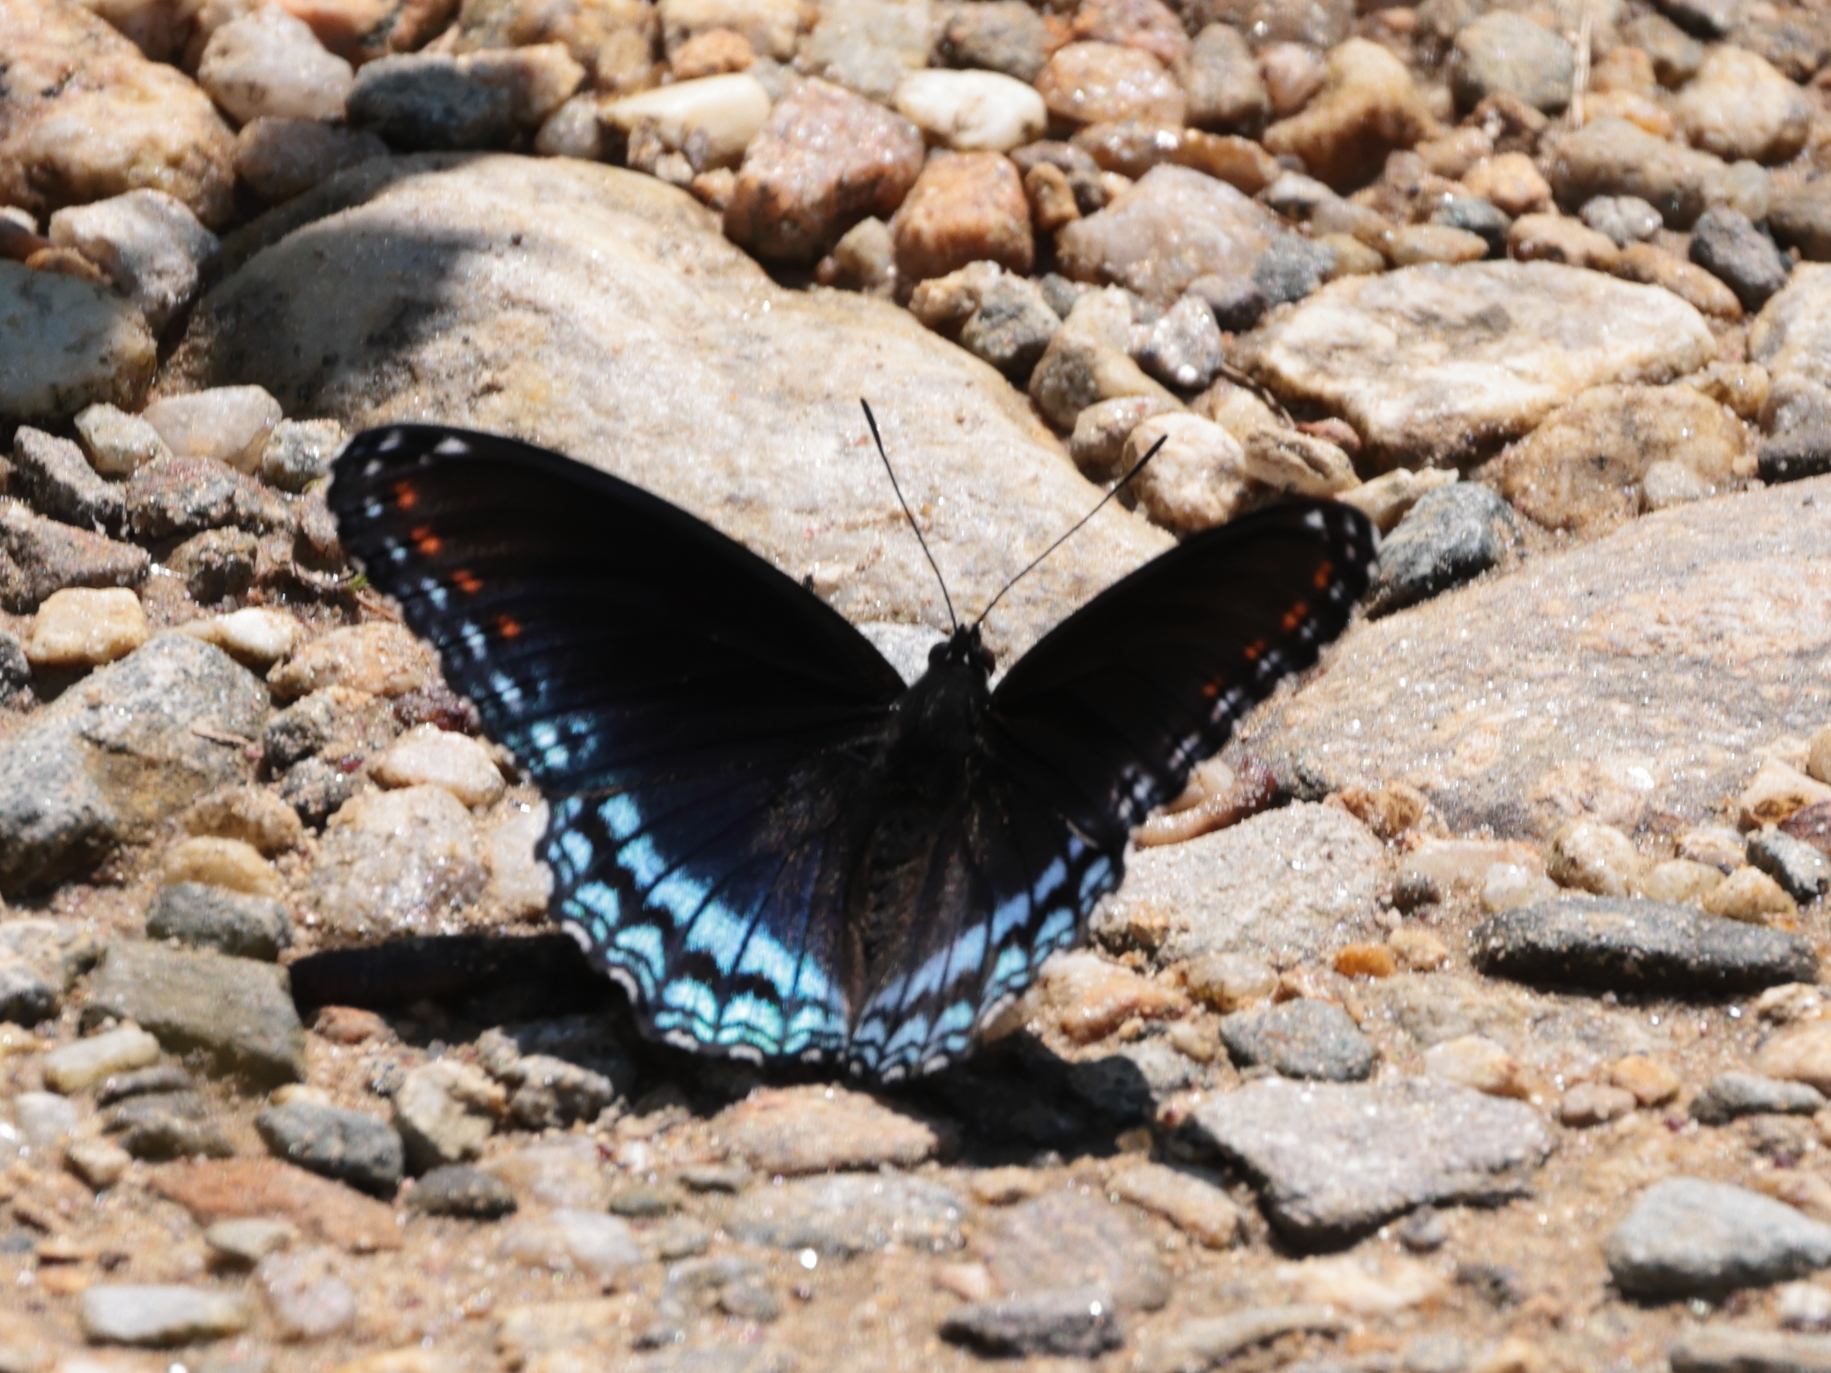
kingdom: Animalia
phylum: Arthropoda
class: Insecta
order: Lepidoptera
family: Nymphalidae
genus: Limenitis
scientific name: Limenitis arthemis
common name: Red-spotted admiral
